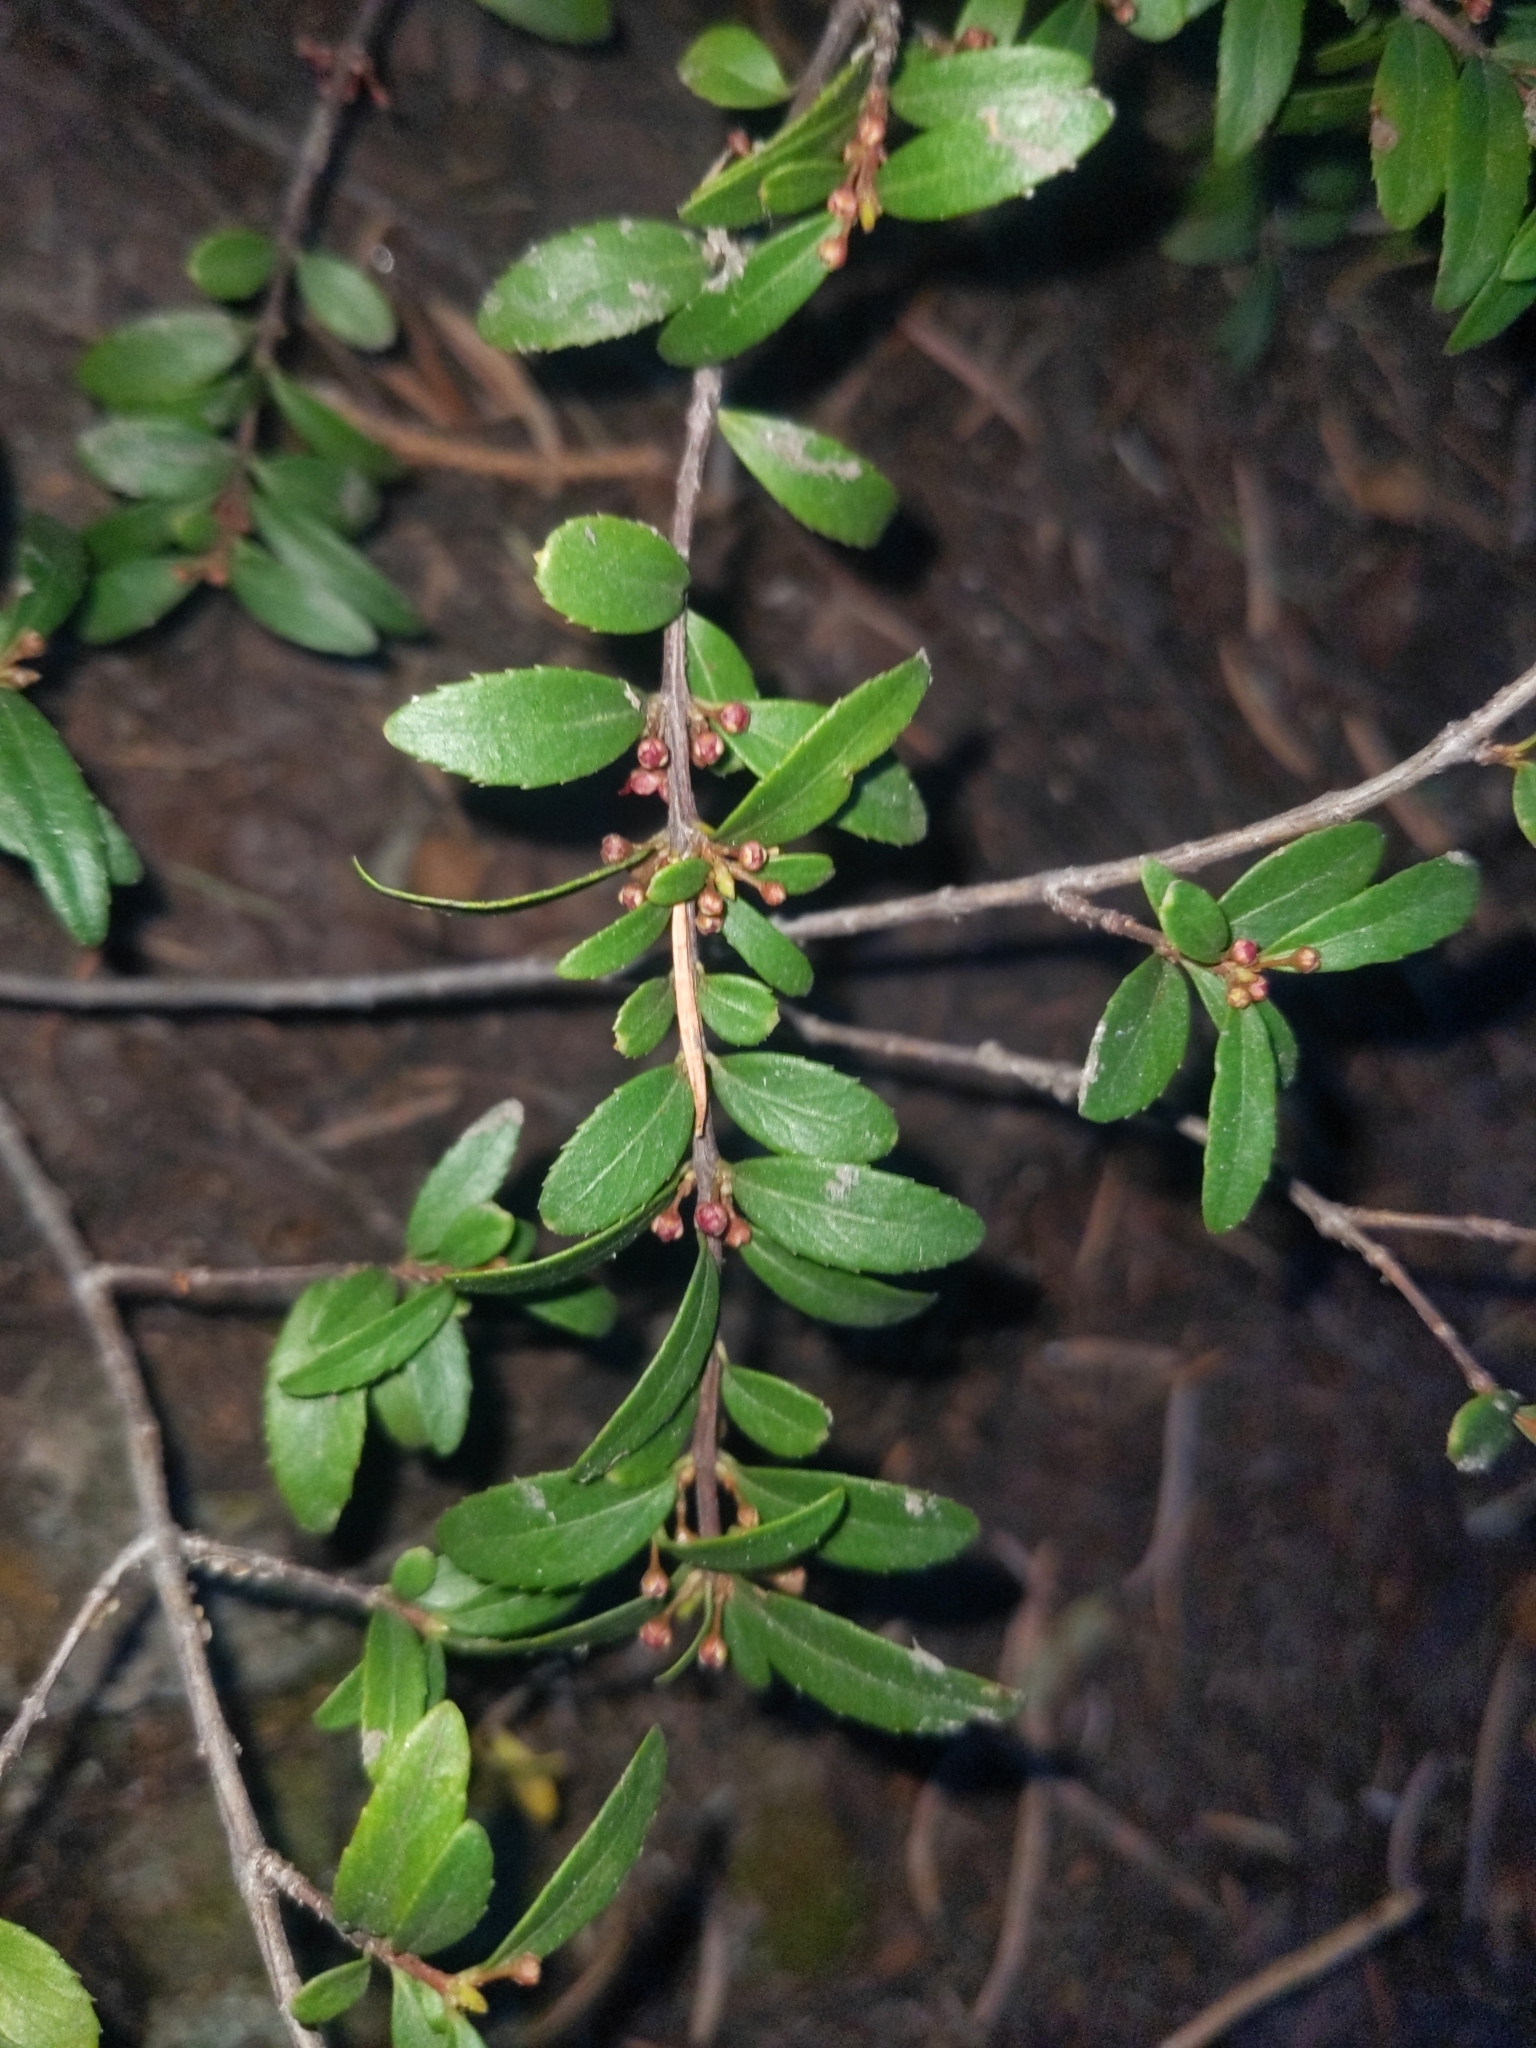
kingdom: Plantae
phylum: Tracheophyta
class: Magnoliopsida
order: Celastrales
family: Celastraceae
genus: Paxistima
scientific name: Paxistima myrsinites
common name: Mountain-lover
